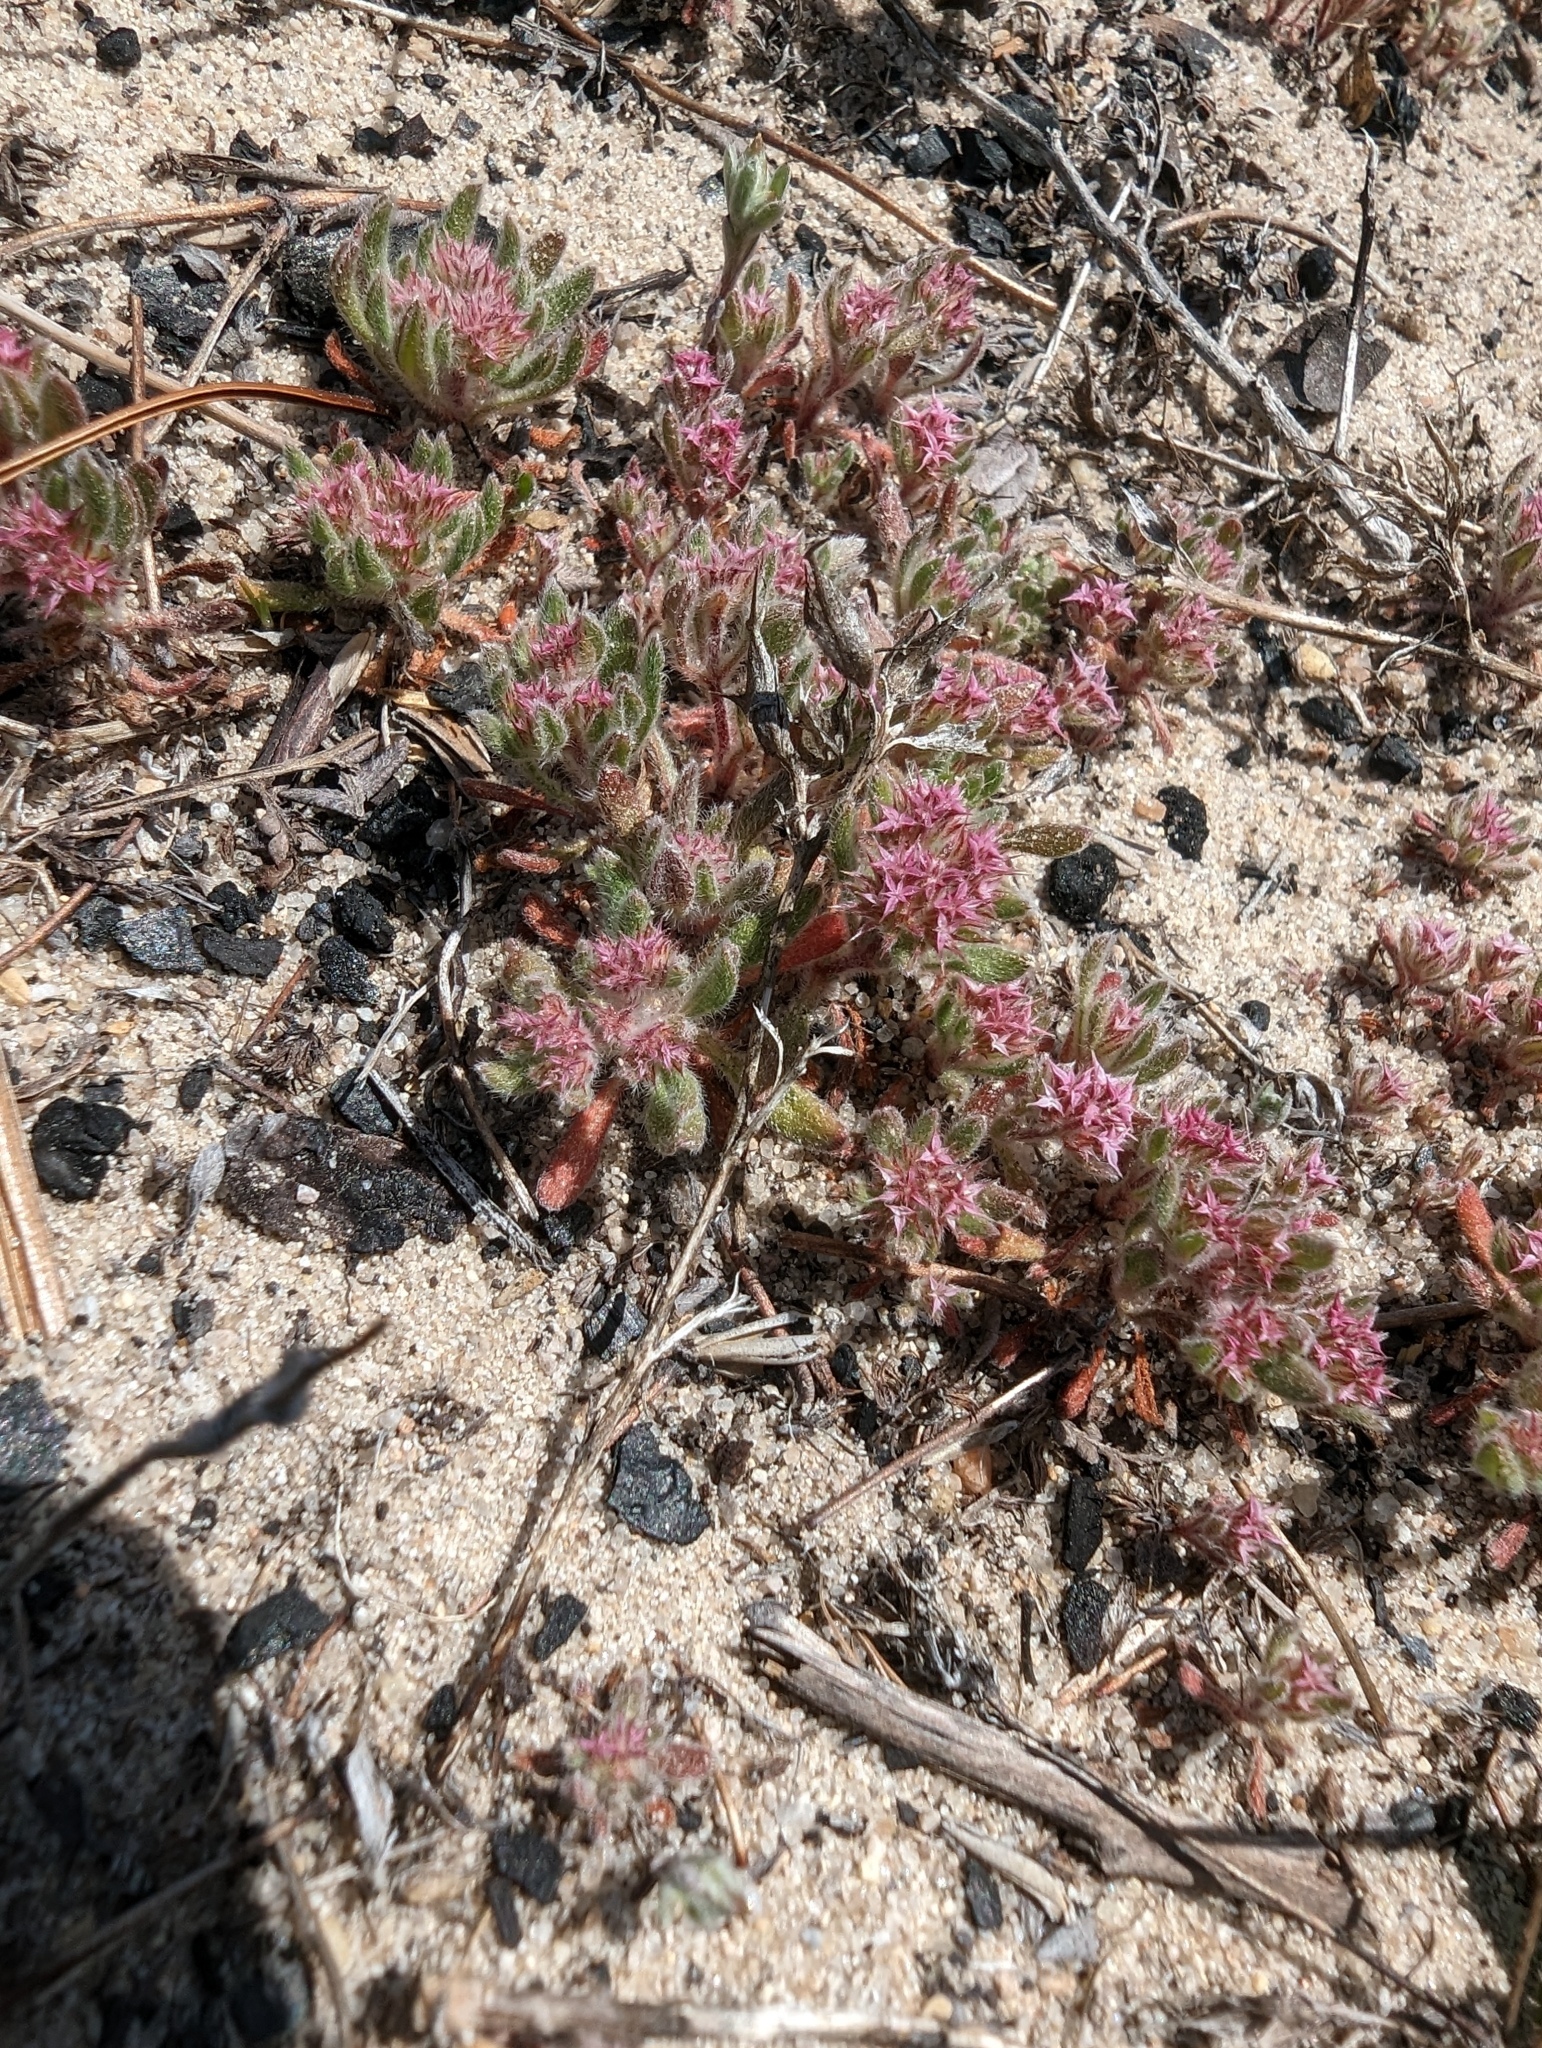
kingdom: Plantae
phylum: Tracheophyta
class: Magnoliopsida
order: Caryophyllales
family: Polygonaceae
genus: Chorizanthe
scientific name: Chorizanthe pungens
